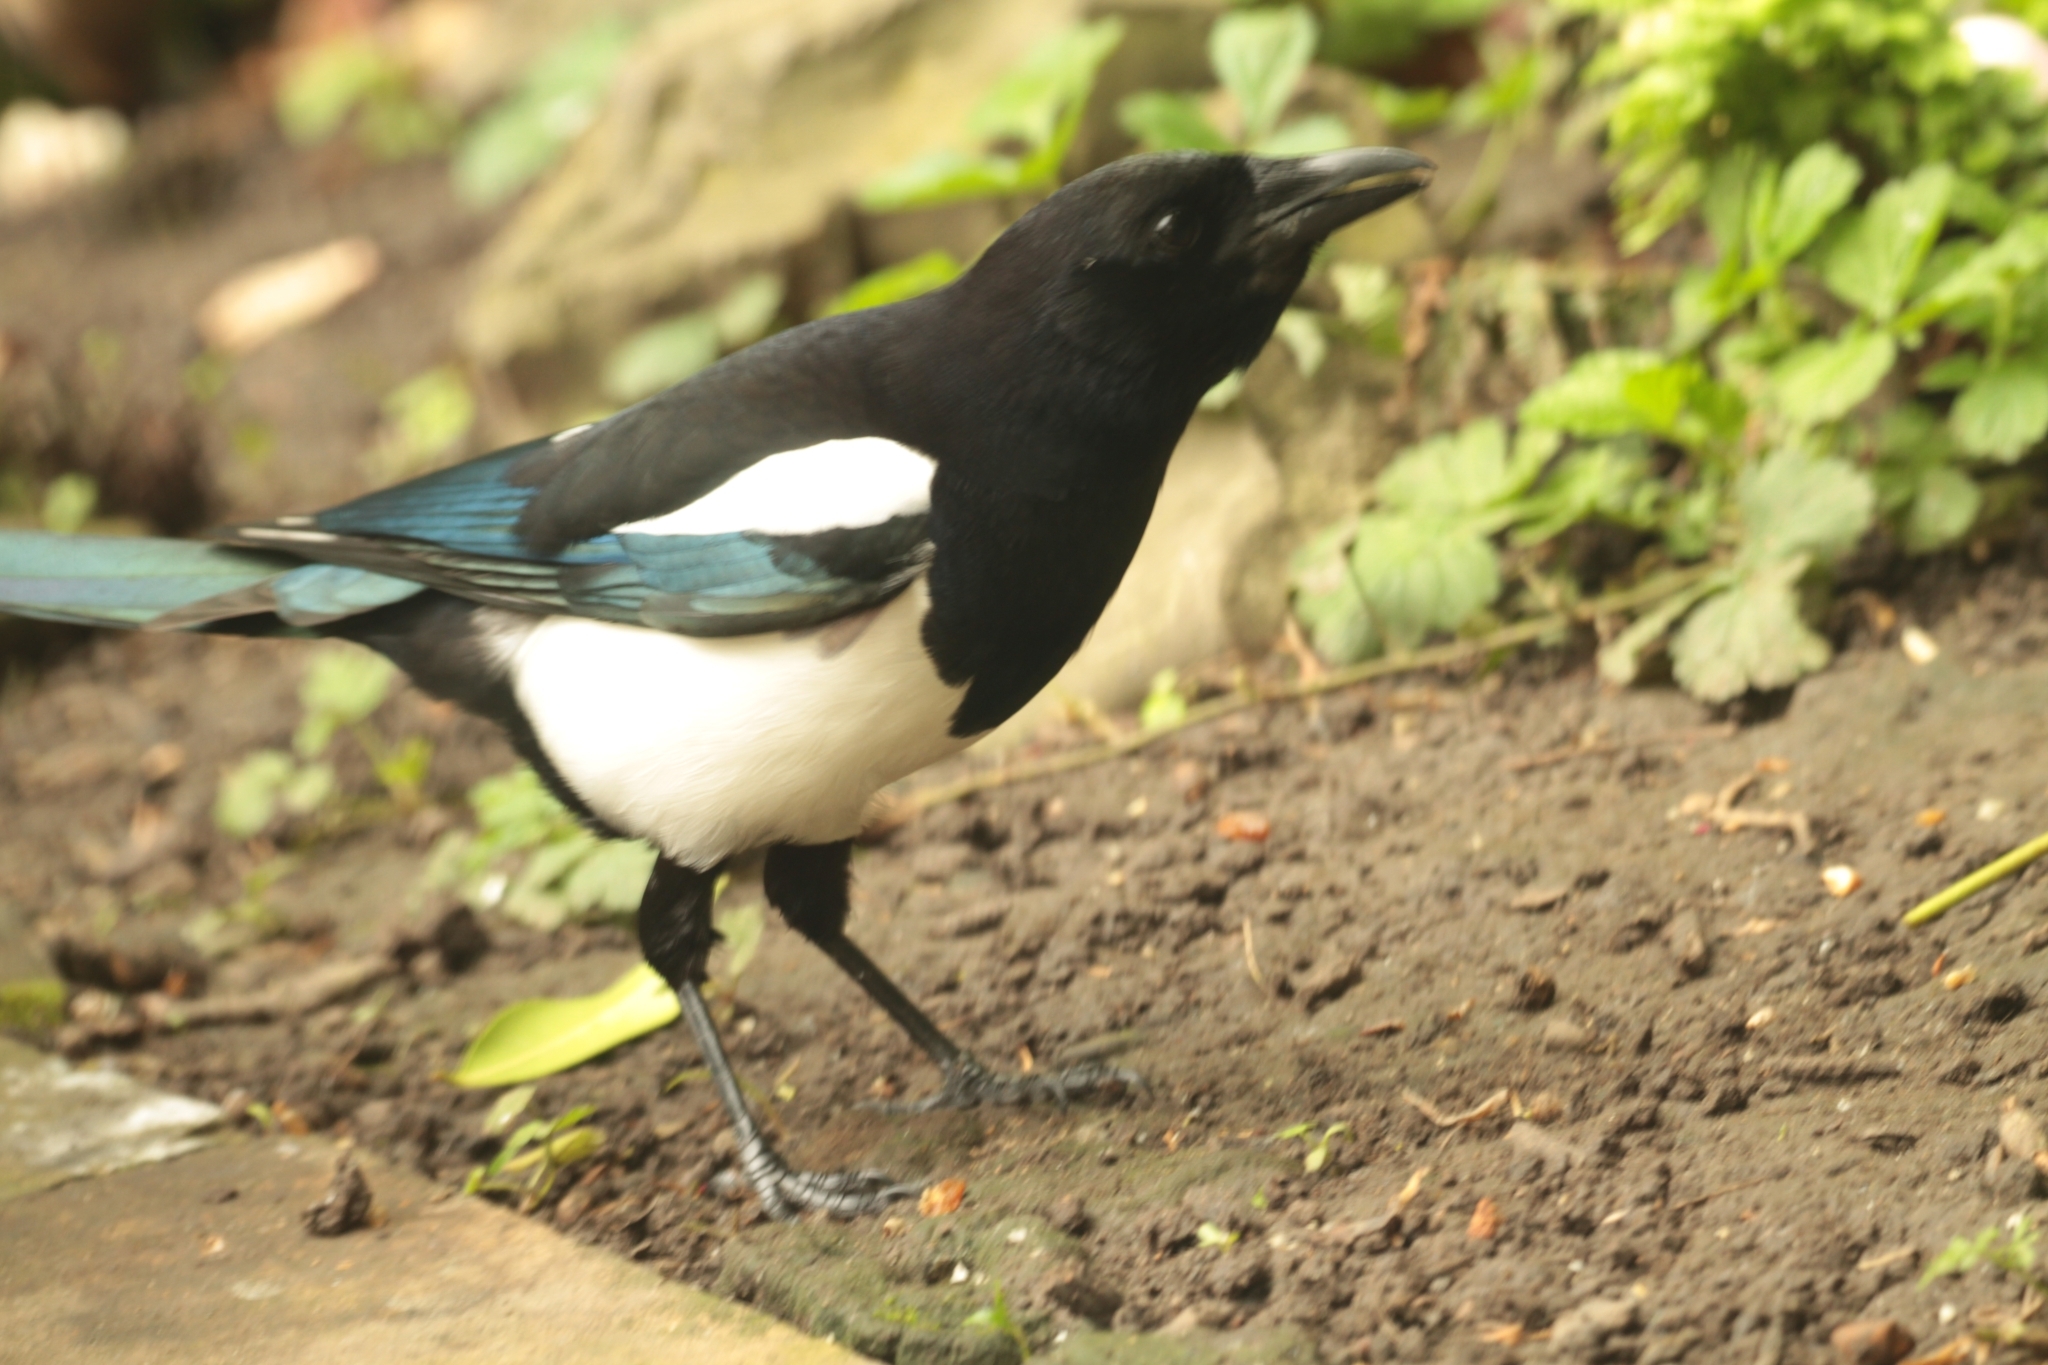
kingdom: Animalia
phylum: Chordata
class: Aves
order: Passeriformes
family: Corvidae
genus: Pica
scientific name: Pica pica
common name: Eurasian magpie
